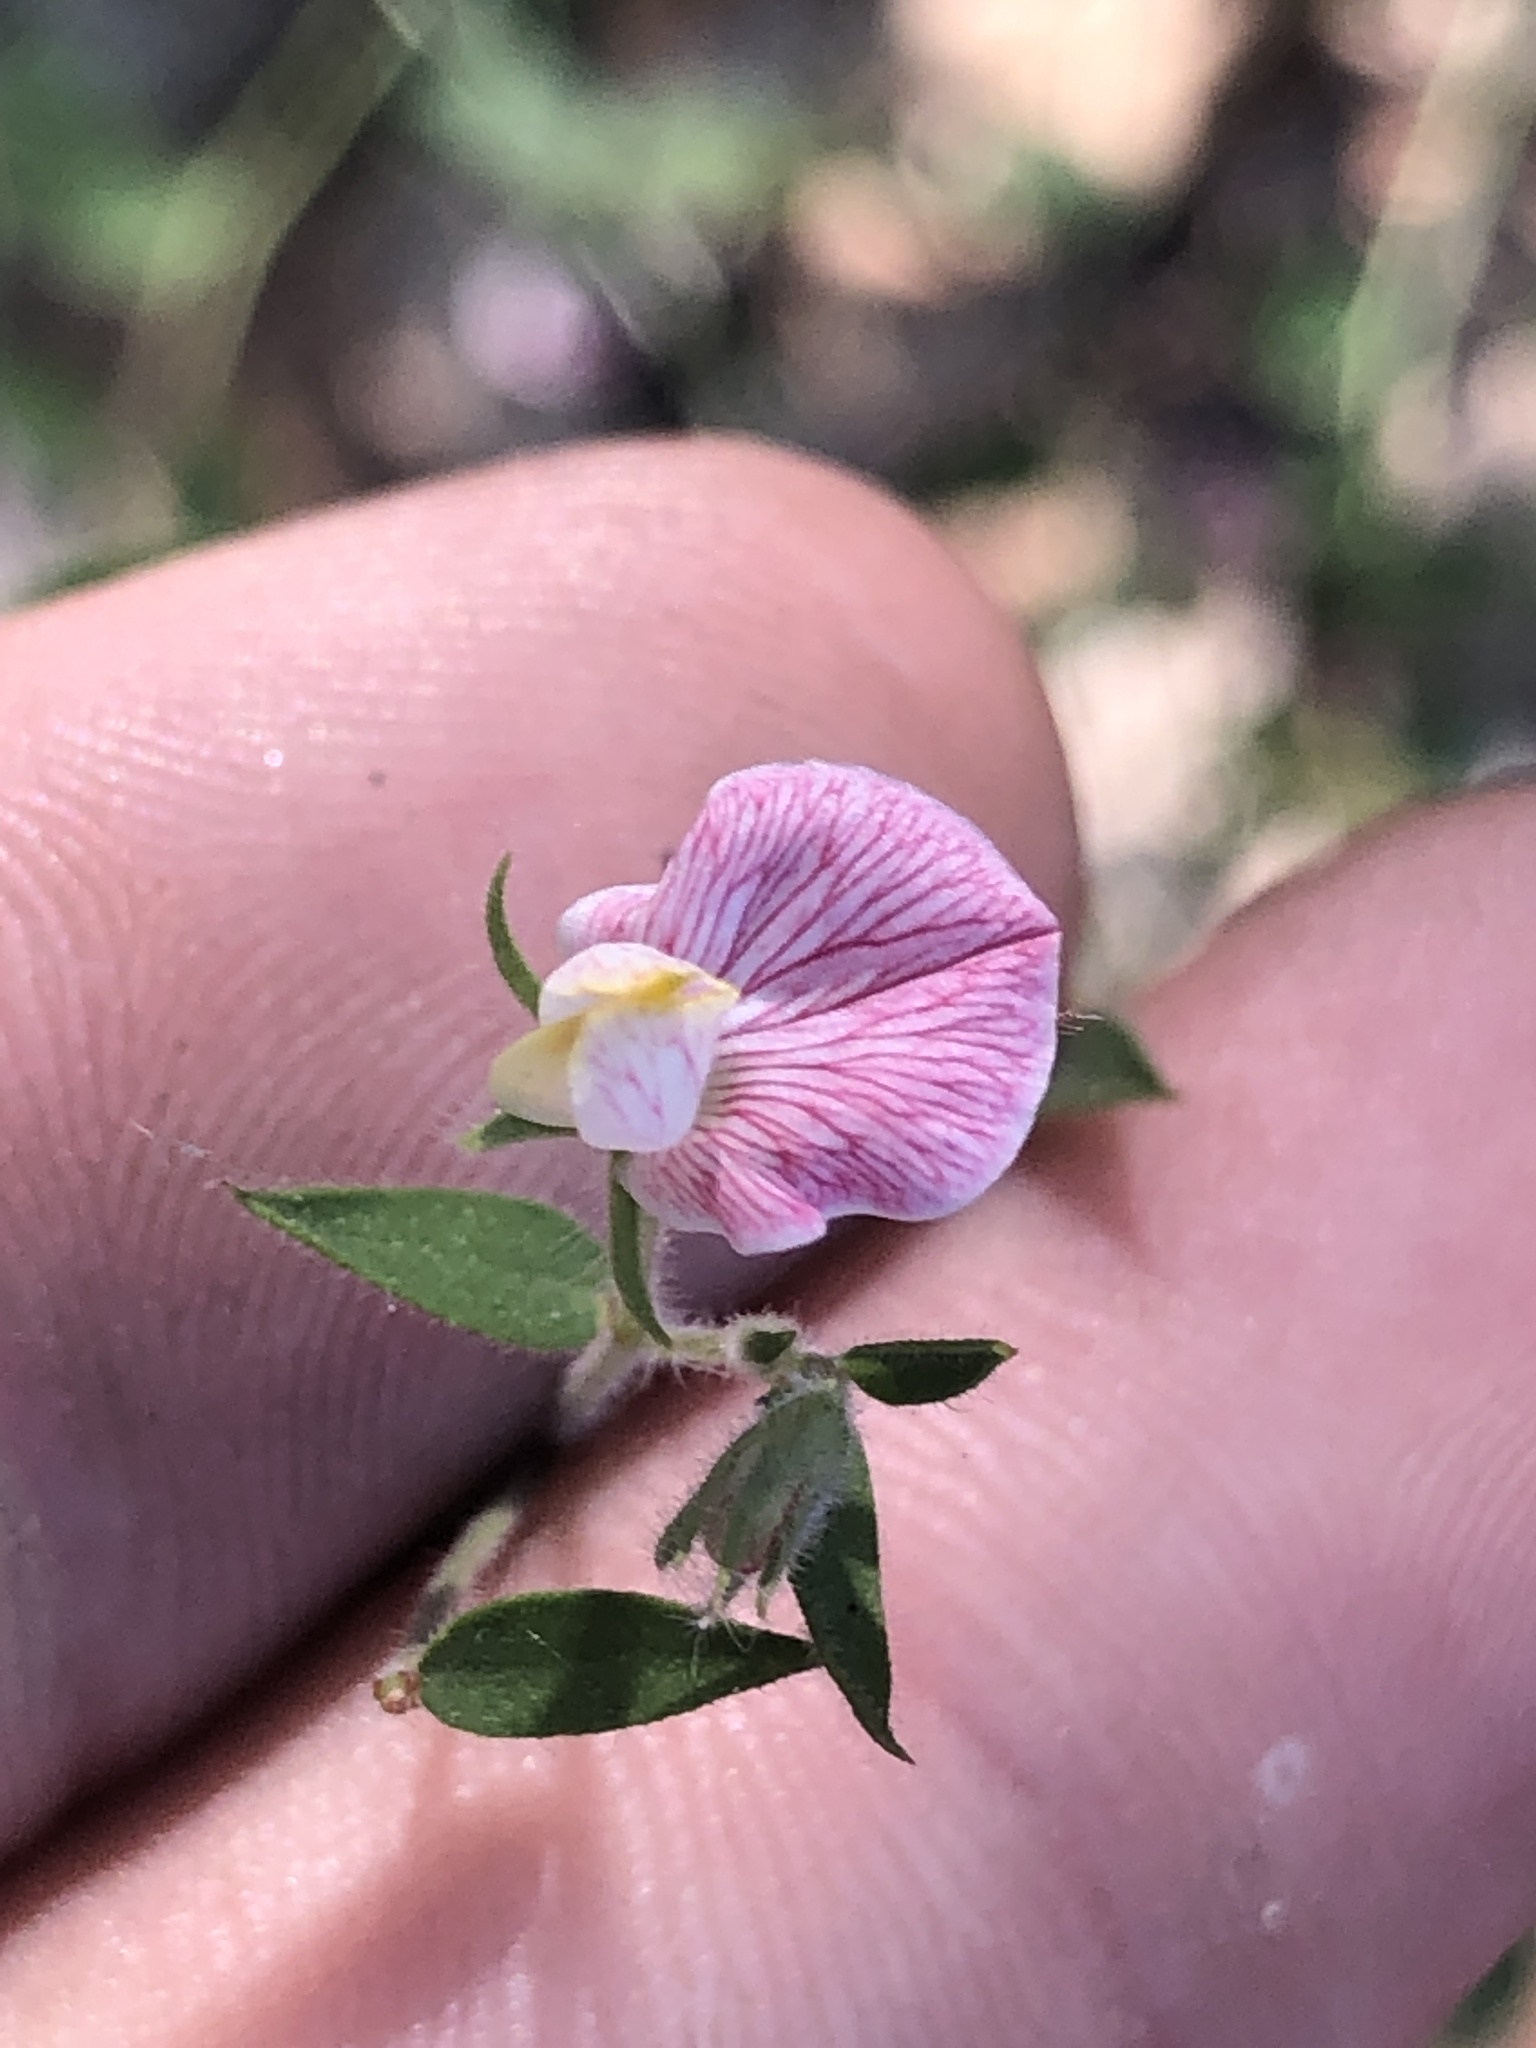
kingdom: Plantae
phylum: Tracheophyta
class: Magnoliopsida
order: Fabales
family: Fabaceae
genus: Acmispon
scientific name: Acmispon americanus
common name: American bird's-foot trefoil
